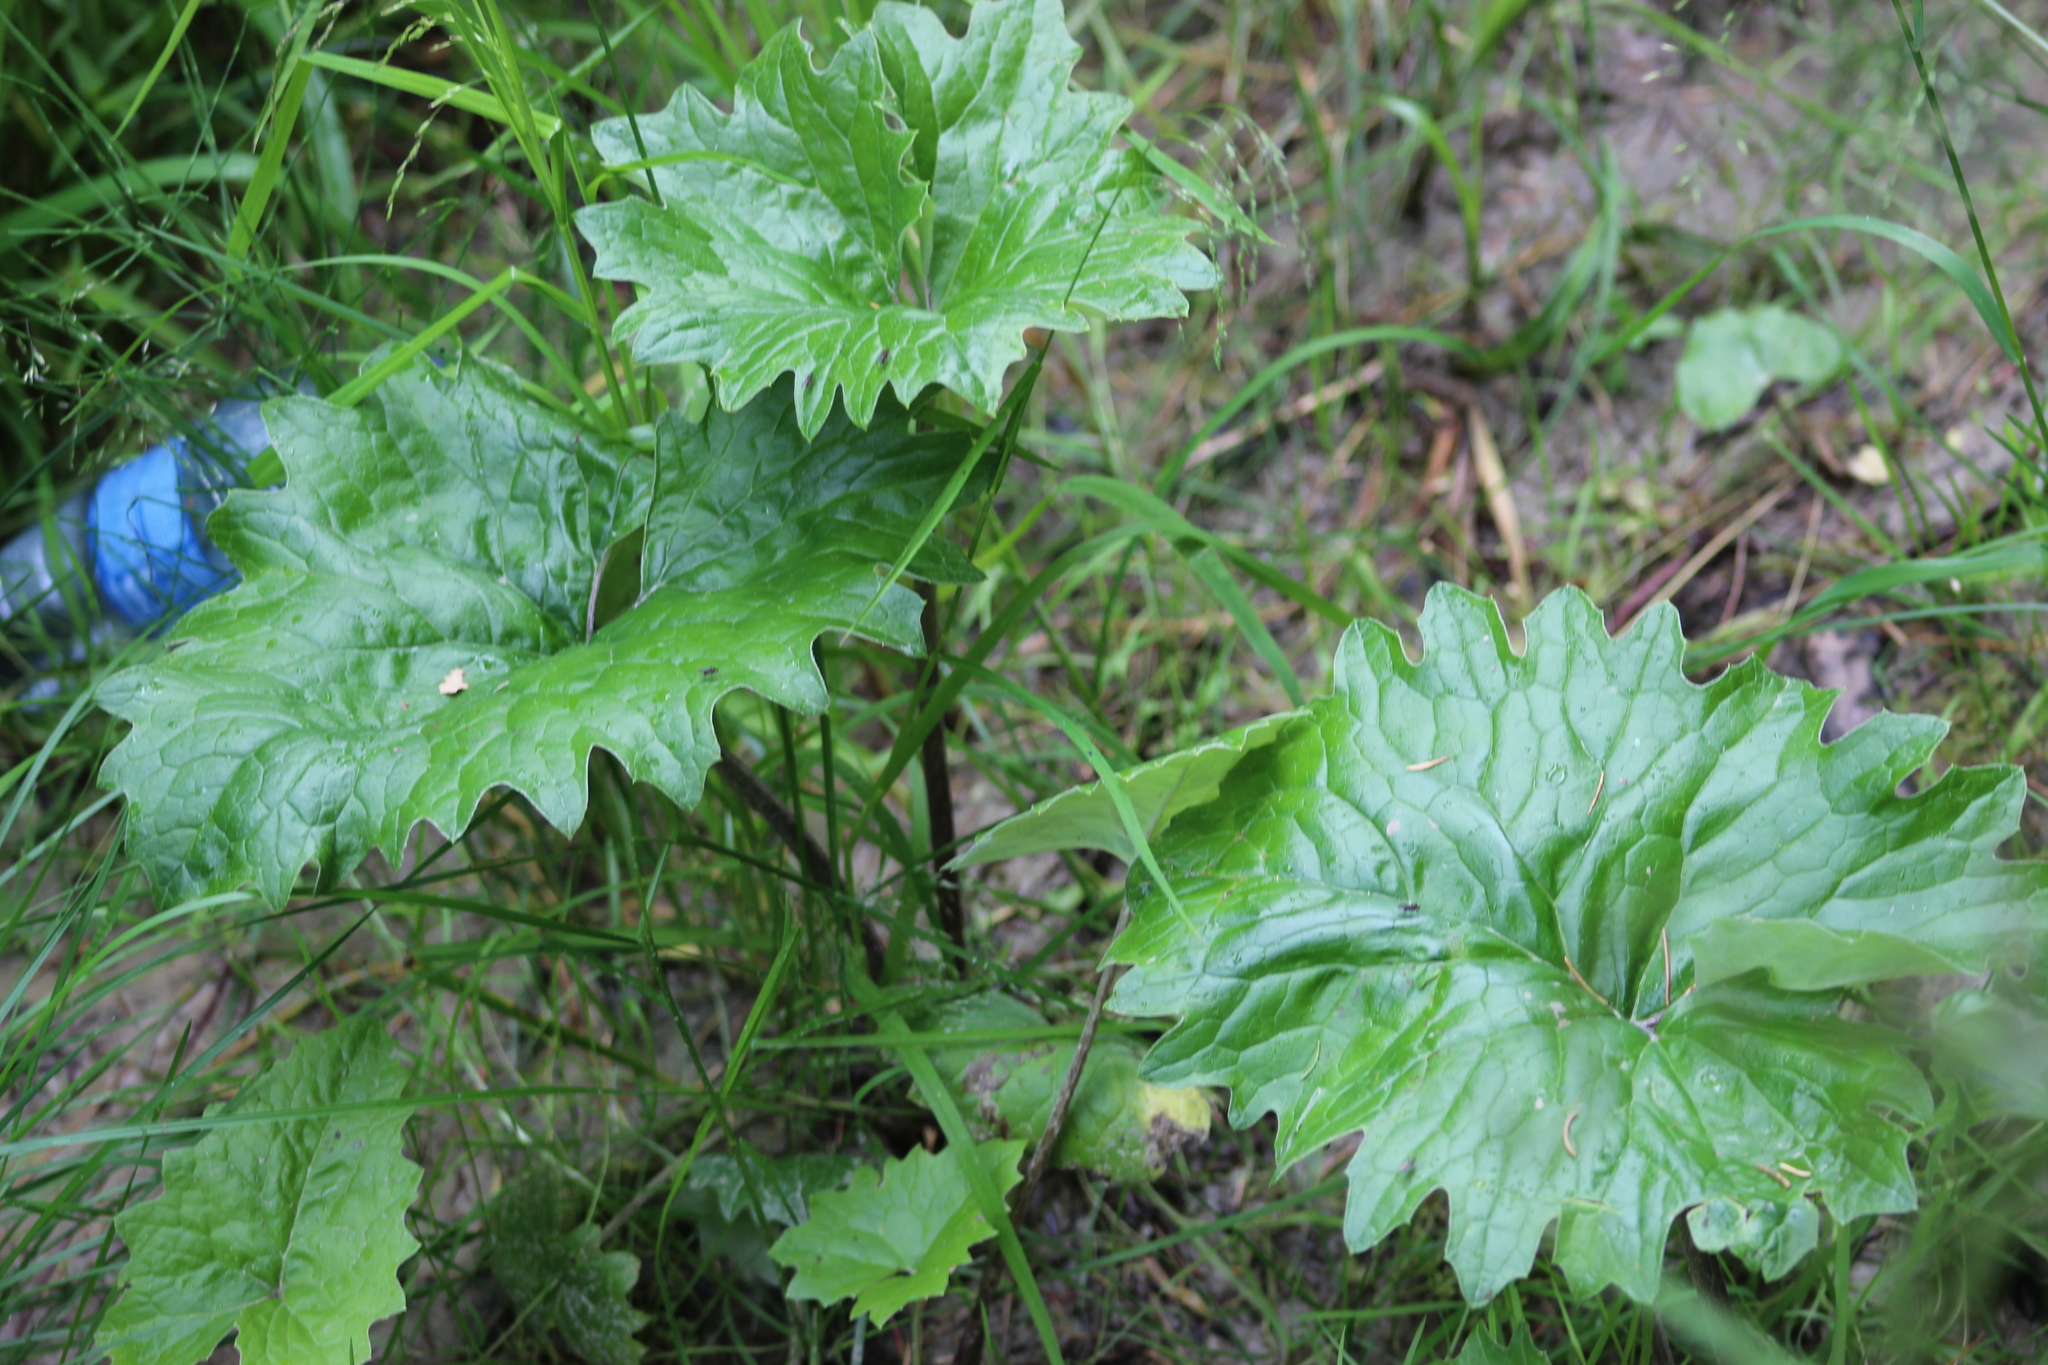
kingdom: Plantae
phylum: Tracheophyta
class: Magnoliopsida
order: Asterales
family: Asteraceae
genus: Petasites
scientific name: Petasites frigidus
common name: Arctic butterbur
